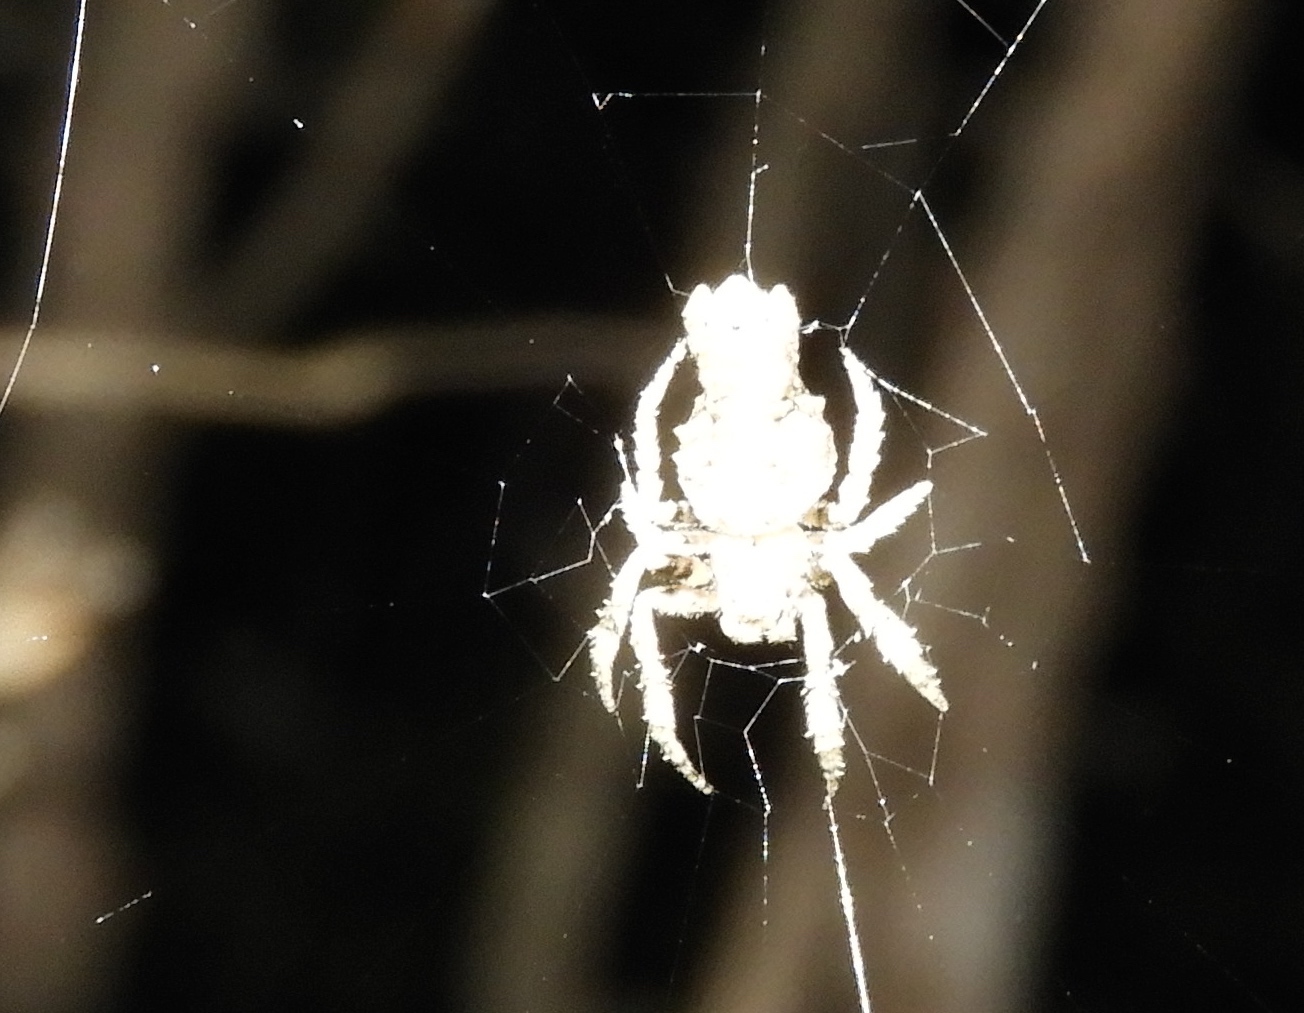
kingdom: Animalia
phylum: Arthropoda
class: Arachnida
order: Araneae
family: Araneidae
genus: Parawixia
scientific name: Parawixia
